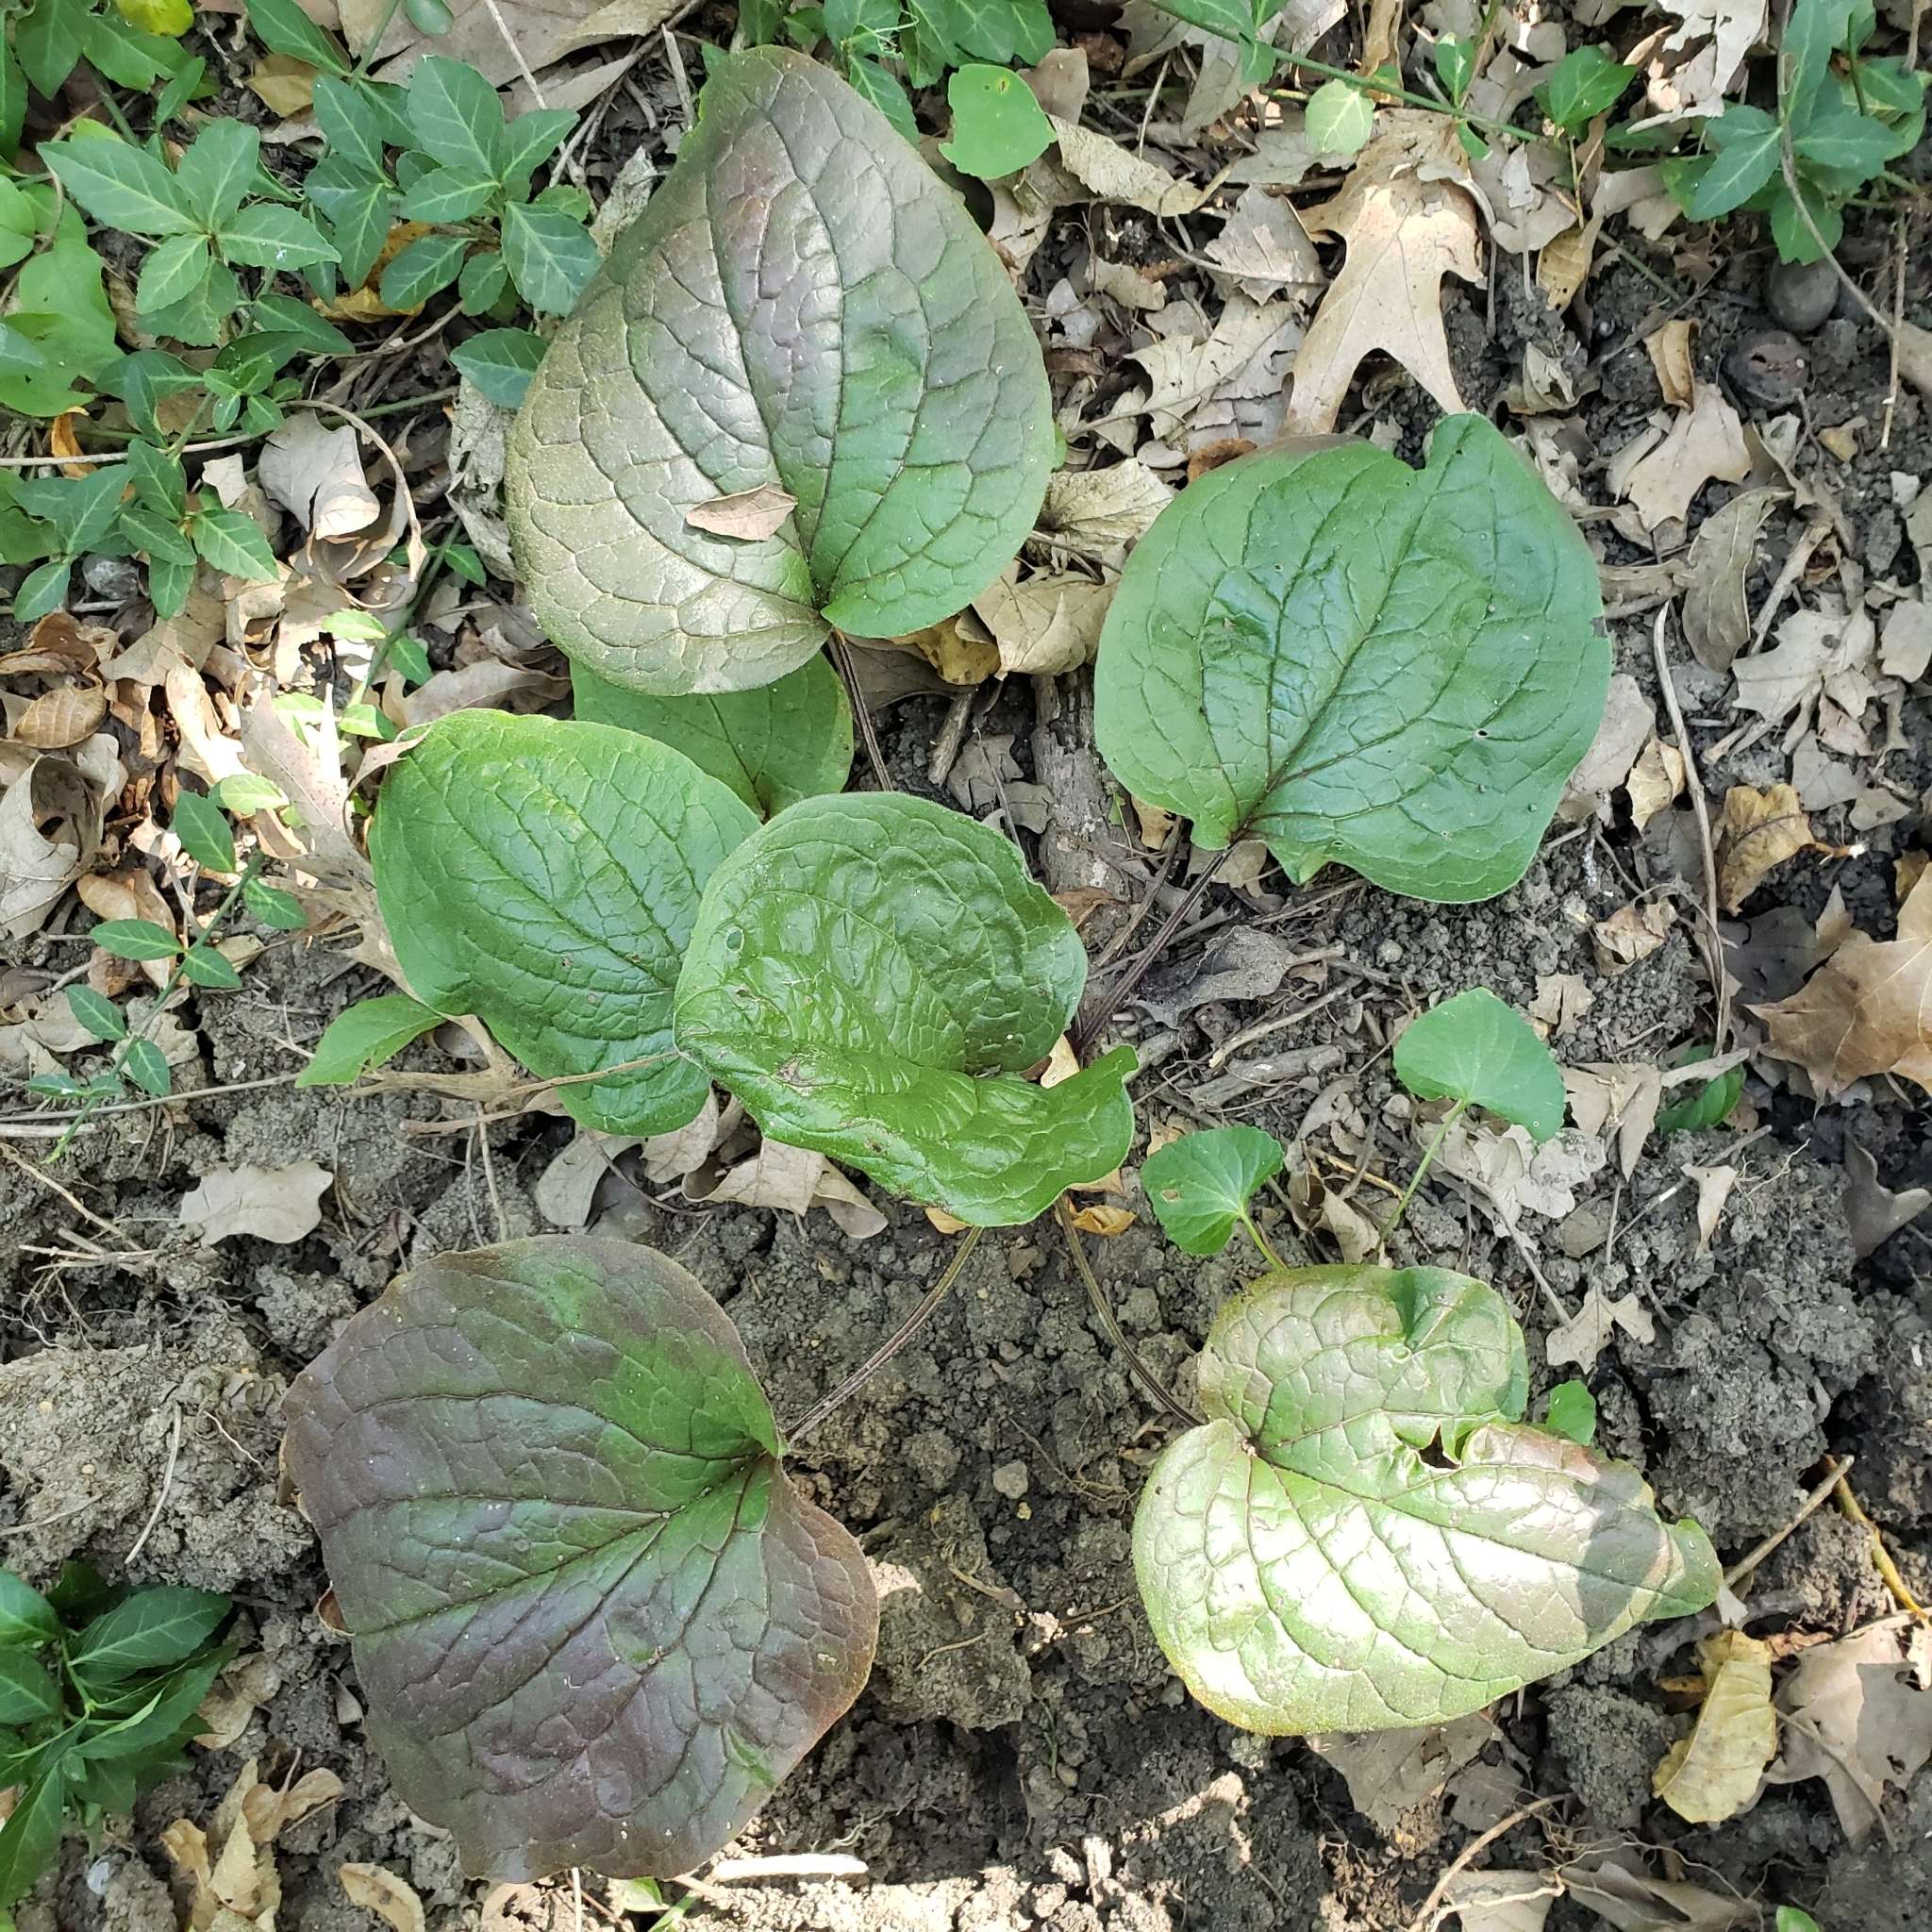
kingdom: Plantae
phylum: Tracheophyta
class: Magnoliopsida
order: Boraginales
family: Boraginaceae
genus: Hackelia
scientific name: Hackelia virginiana
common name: Beggar's-lice
